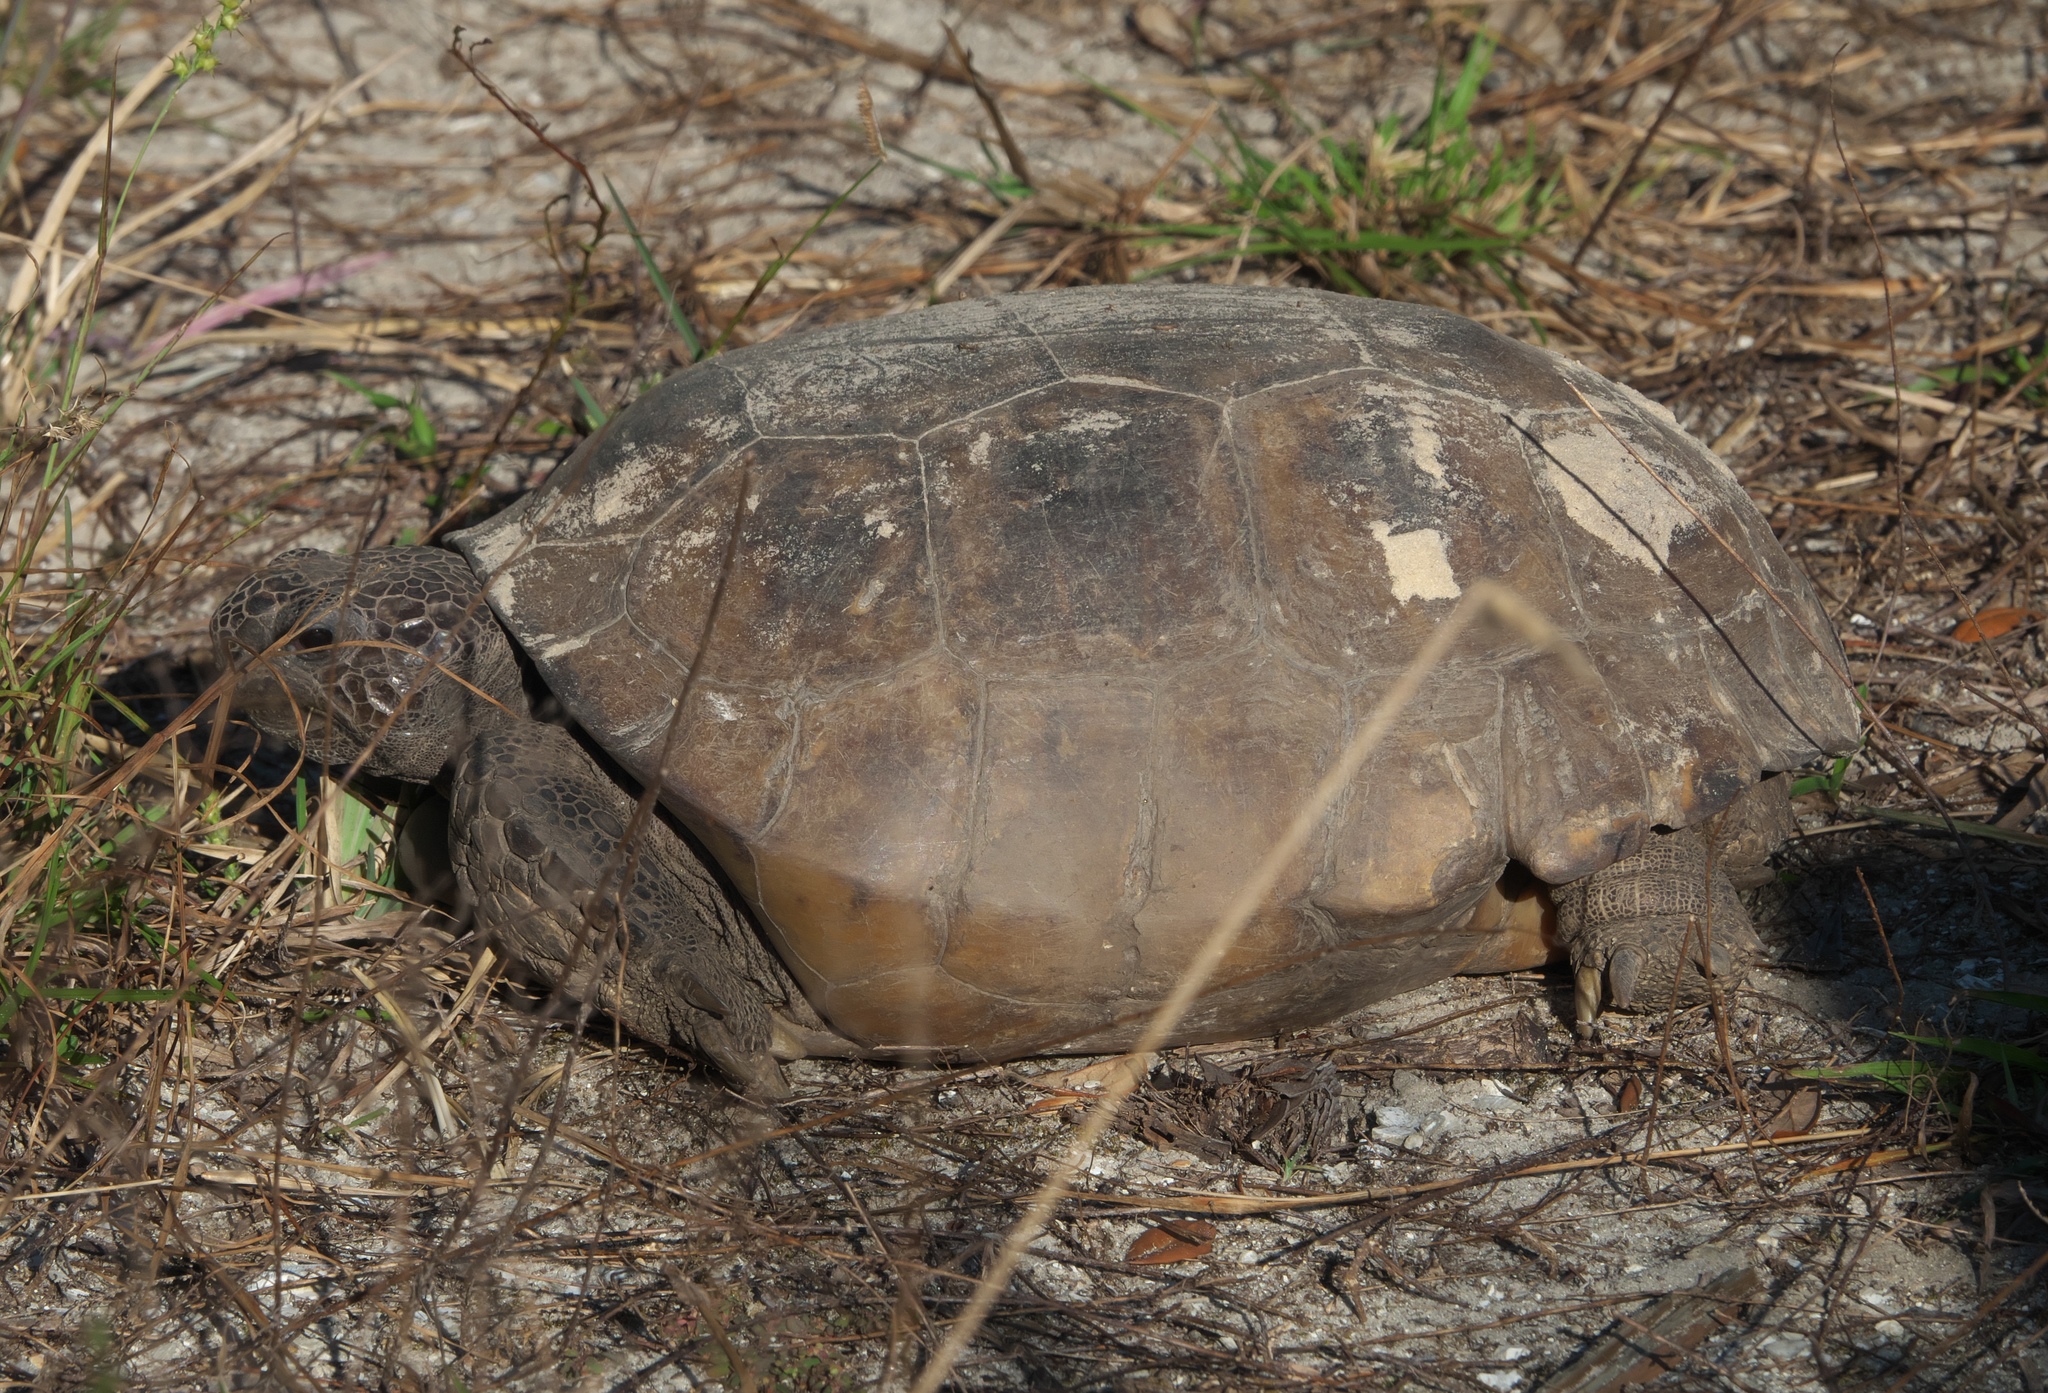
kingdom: Animalia
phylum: Chordata
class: Testudines
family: Testudinidae
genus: Gopherus
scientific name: Gopherus polyphemus
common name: Florida gopher tortoise
